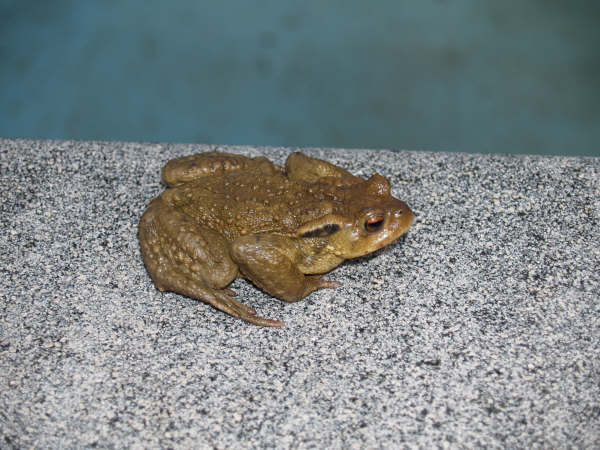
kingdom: Animalia
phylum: Chordata
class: Amphibia
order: Anura
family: Bufonidae
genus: Bufo
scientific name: Bufo spinosus
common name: Western common toad
